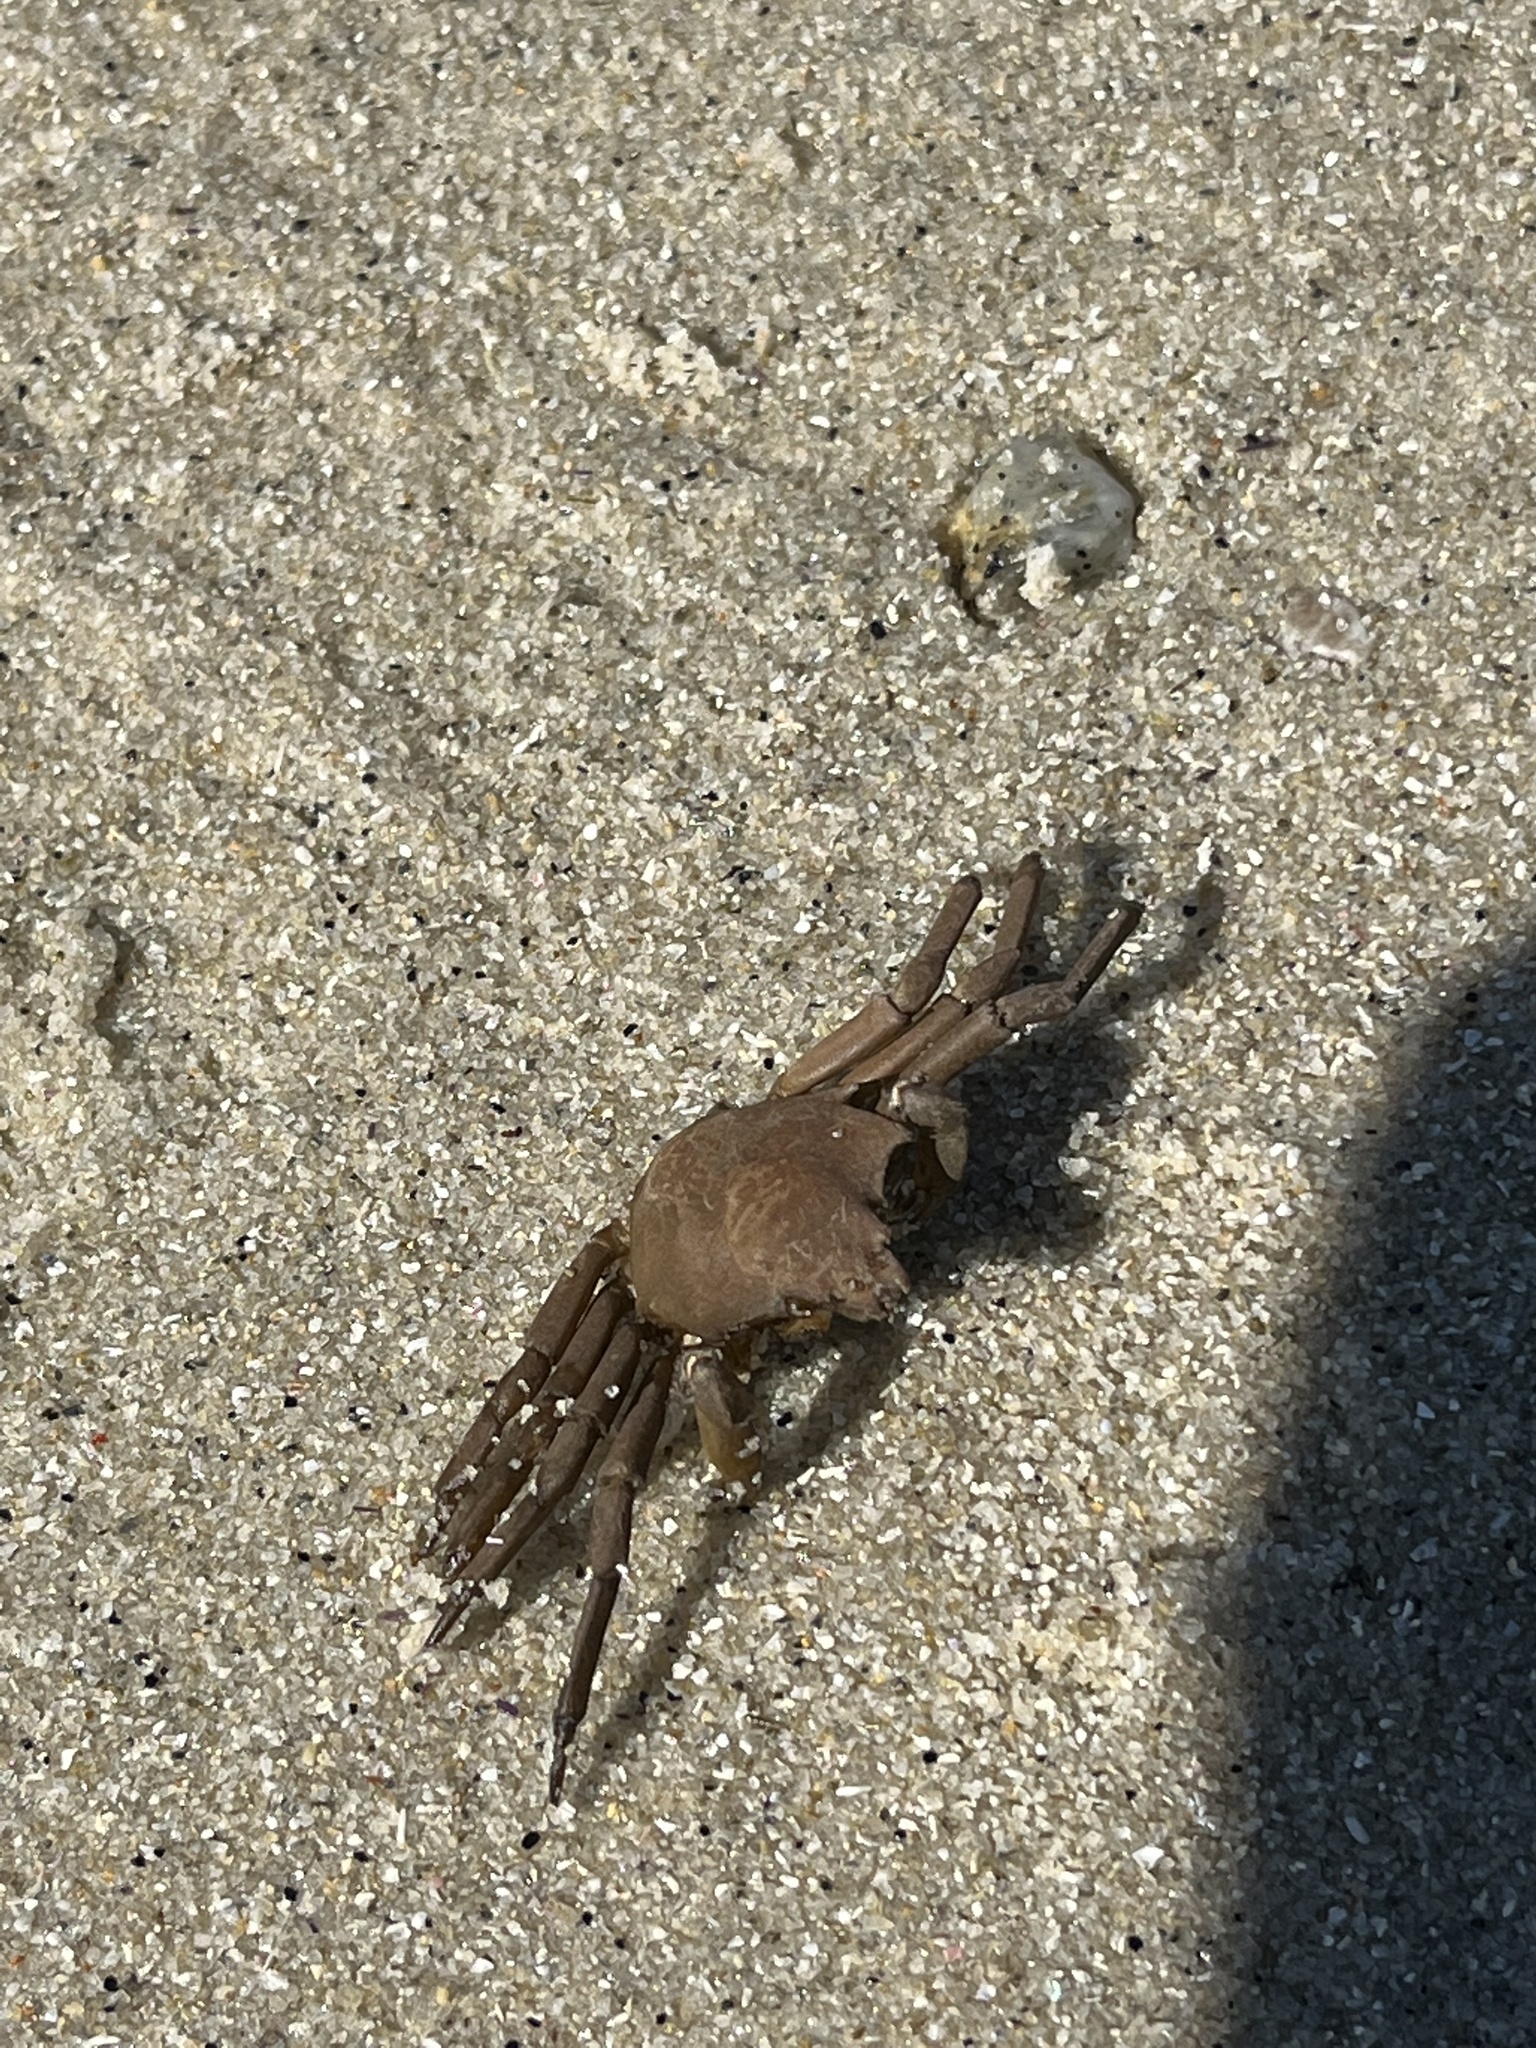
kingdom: Animalia
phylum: Arthropoda
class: Malacostraca
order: Decapoda
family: Epialtidae
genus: Pugettia
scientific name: Pugettia producta
